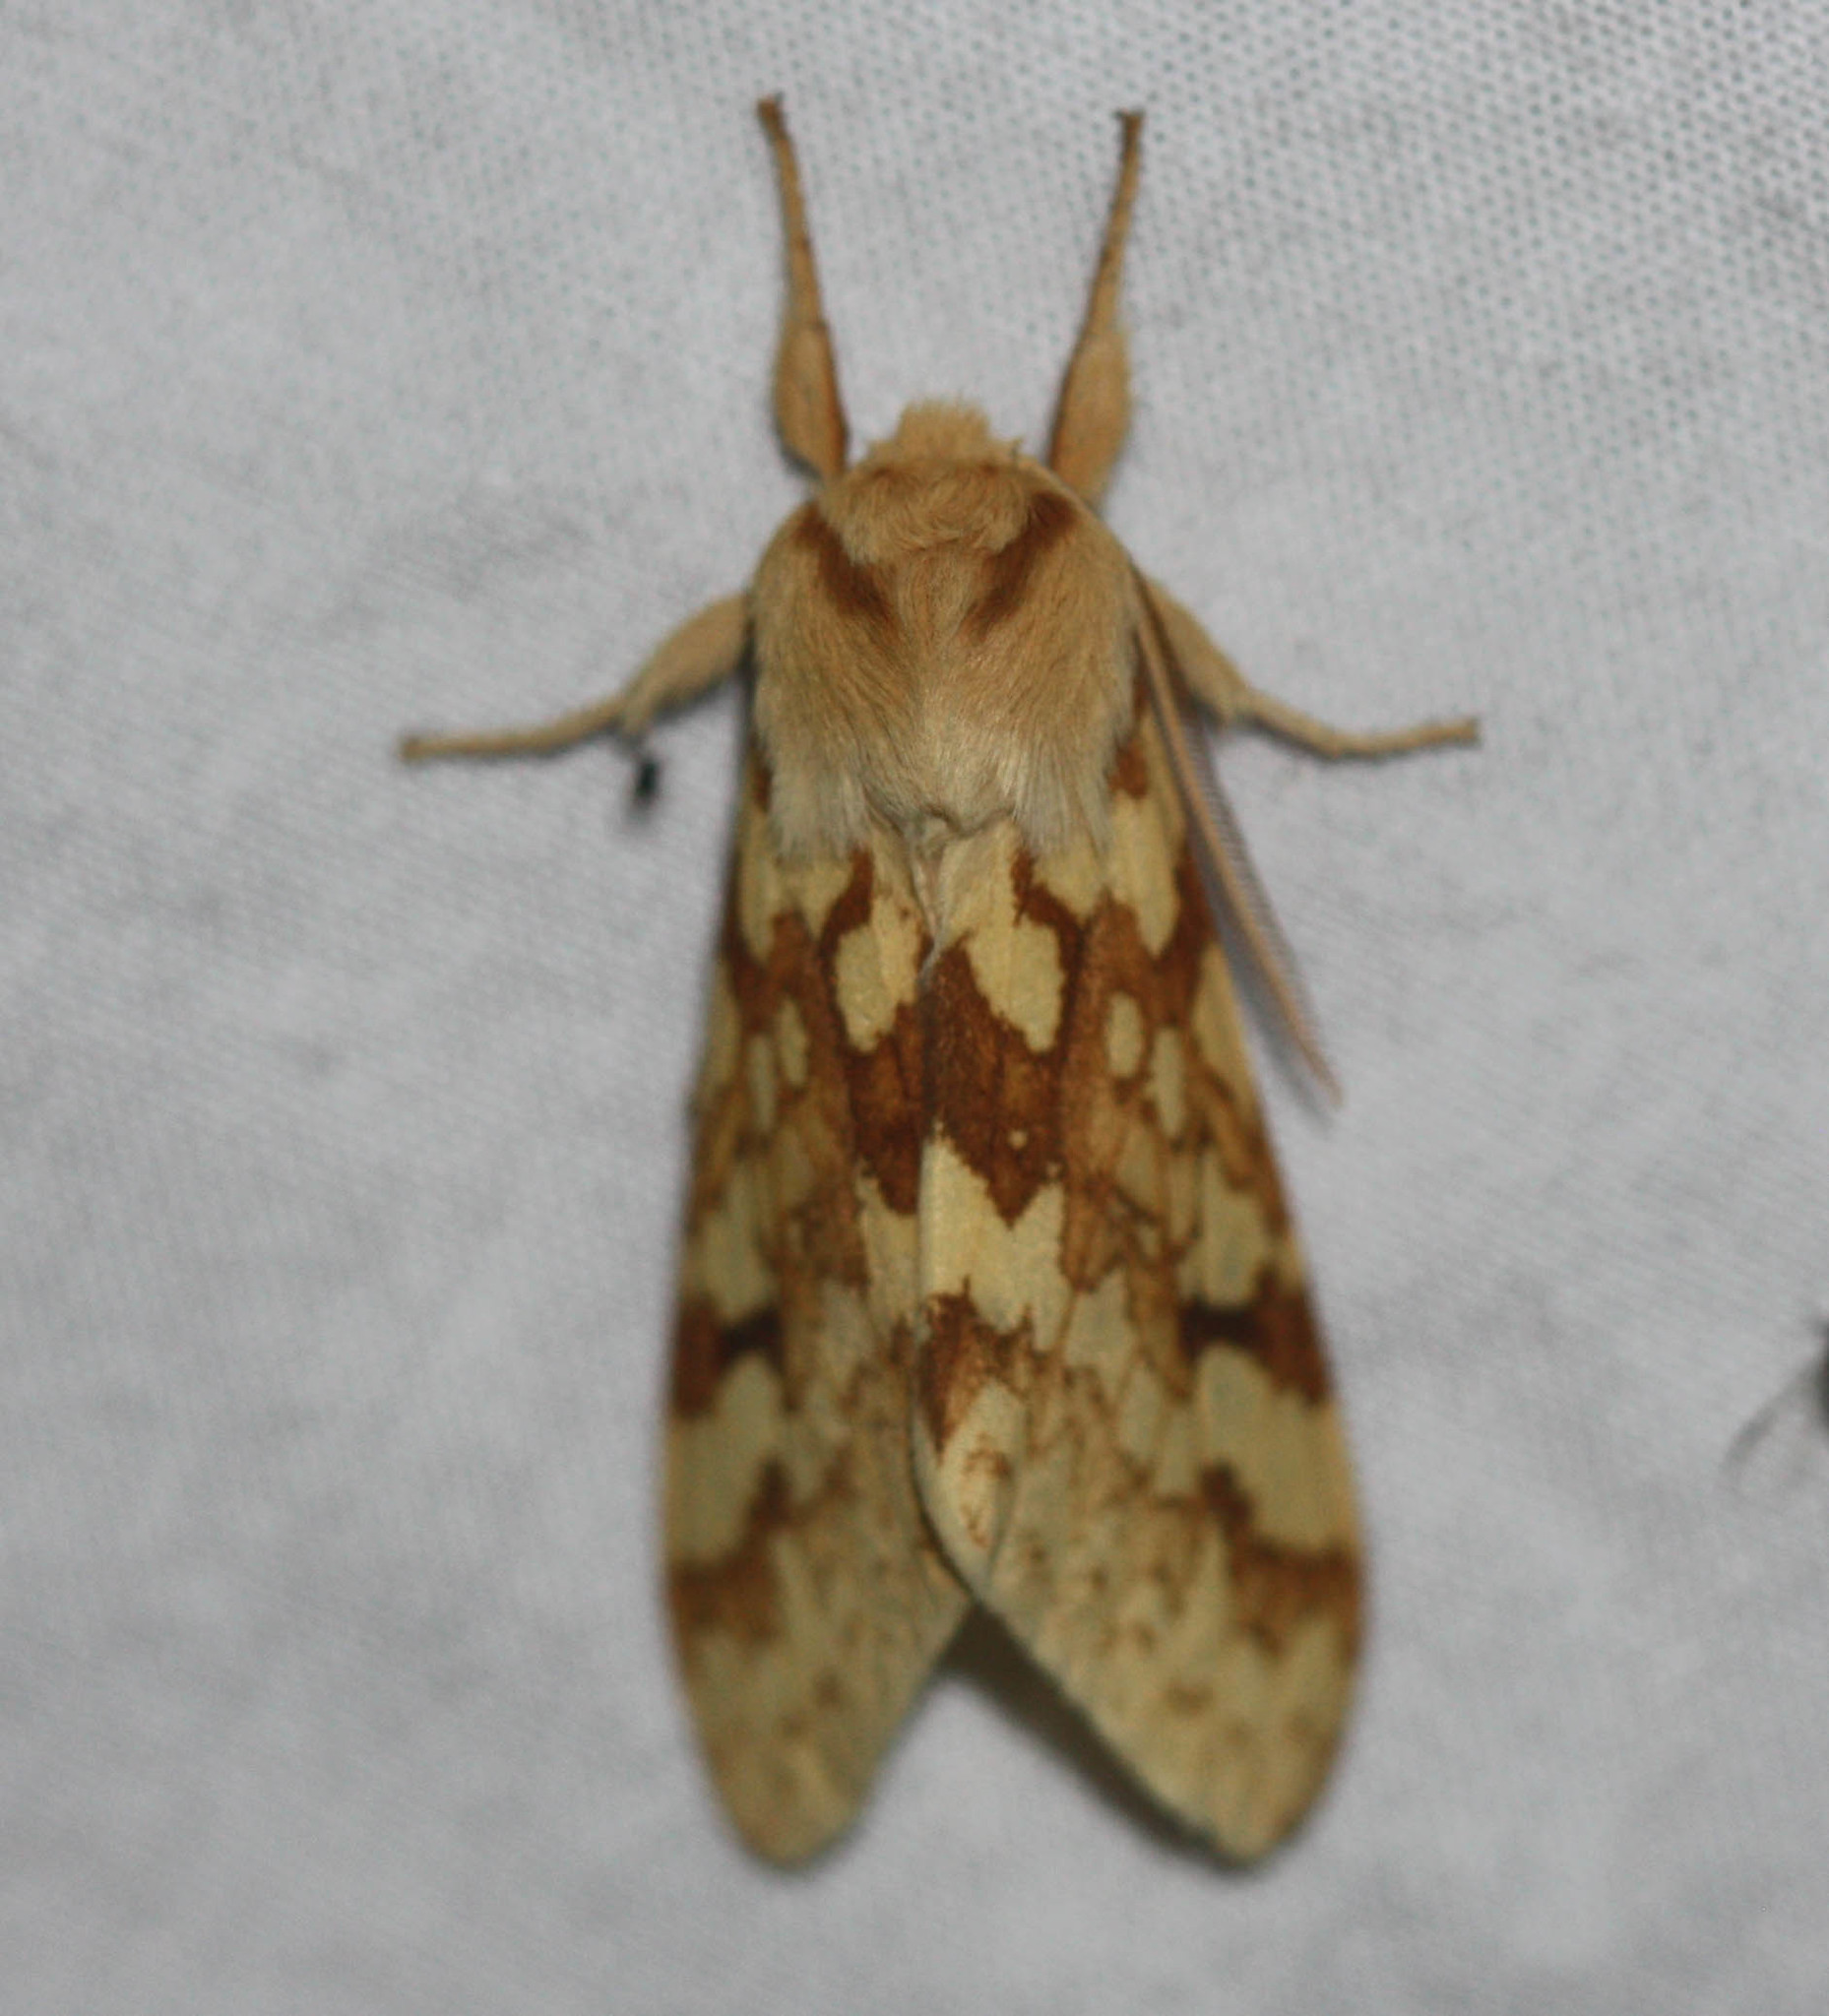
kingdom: Animalia
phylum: Arthropoda
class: Insecta
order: Lepidoptera
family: Erebidae
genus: Lophocampa
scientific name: Lophocampa maculata
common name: Spotted tussock moth
